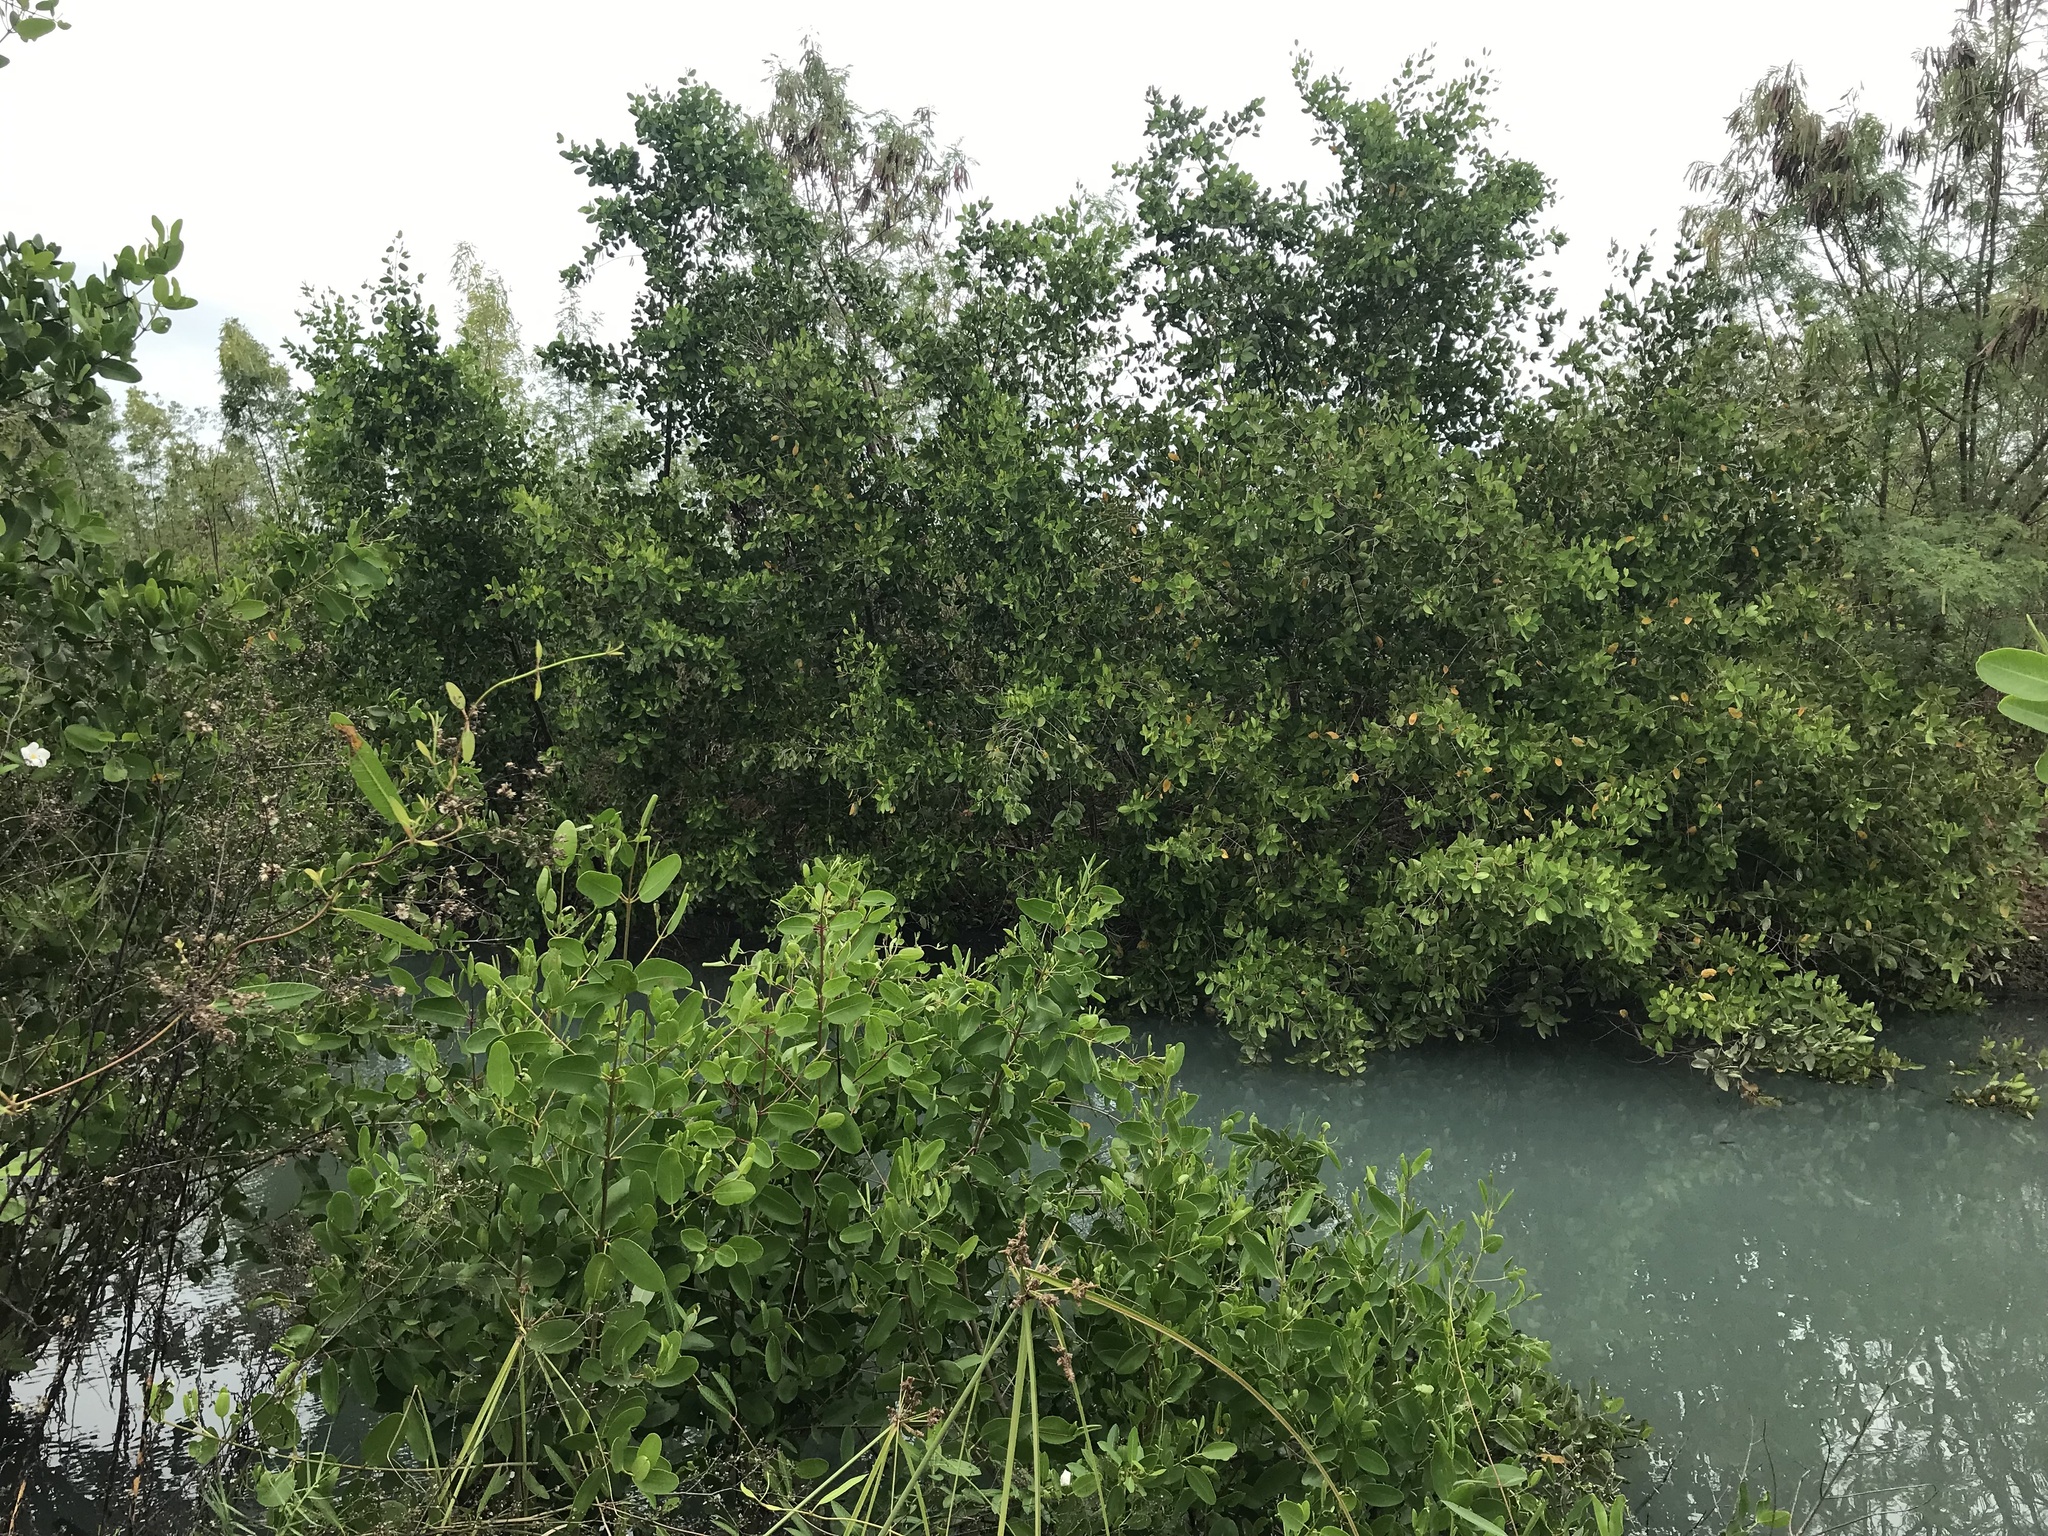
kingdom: Plantae
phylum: Tracheophyta
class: Magnoliopsida
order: Gentianales
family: Apocynaceae
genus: Rhabdadenia
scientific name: Rhabdadenia biflora
